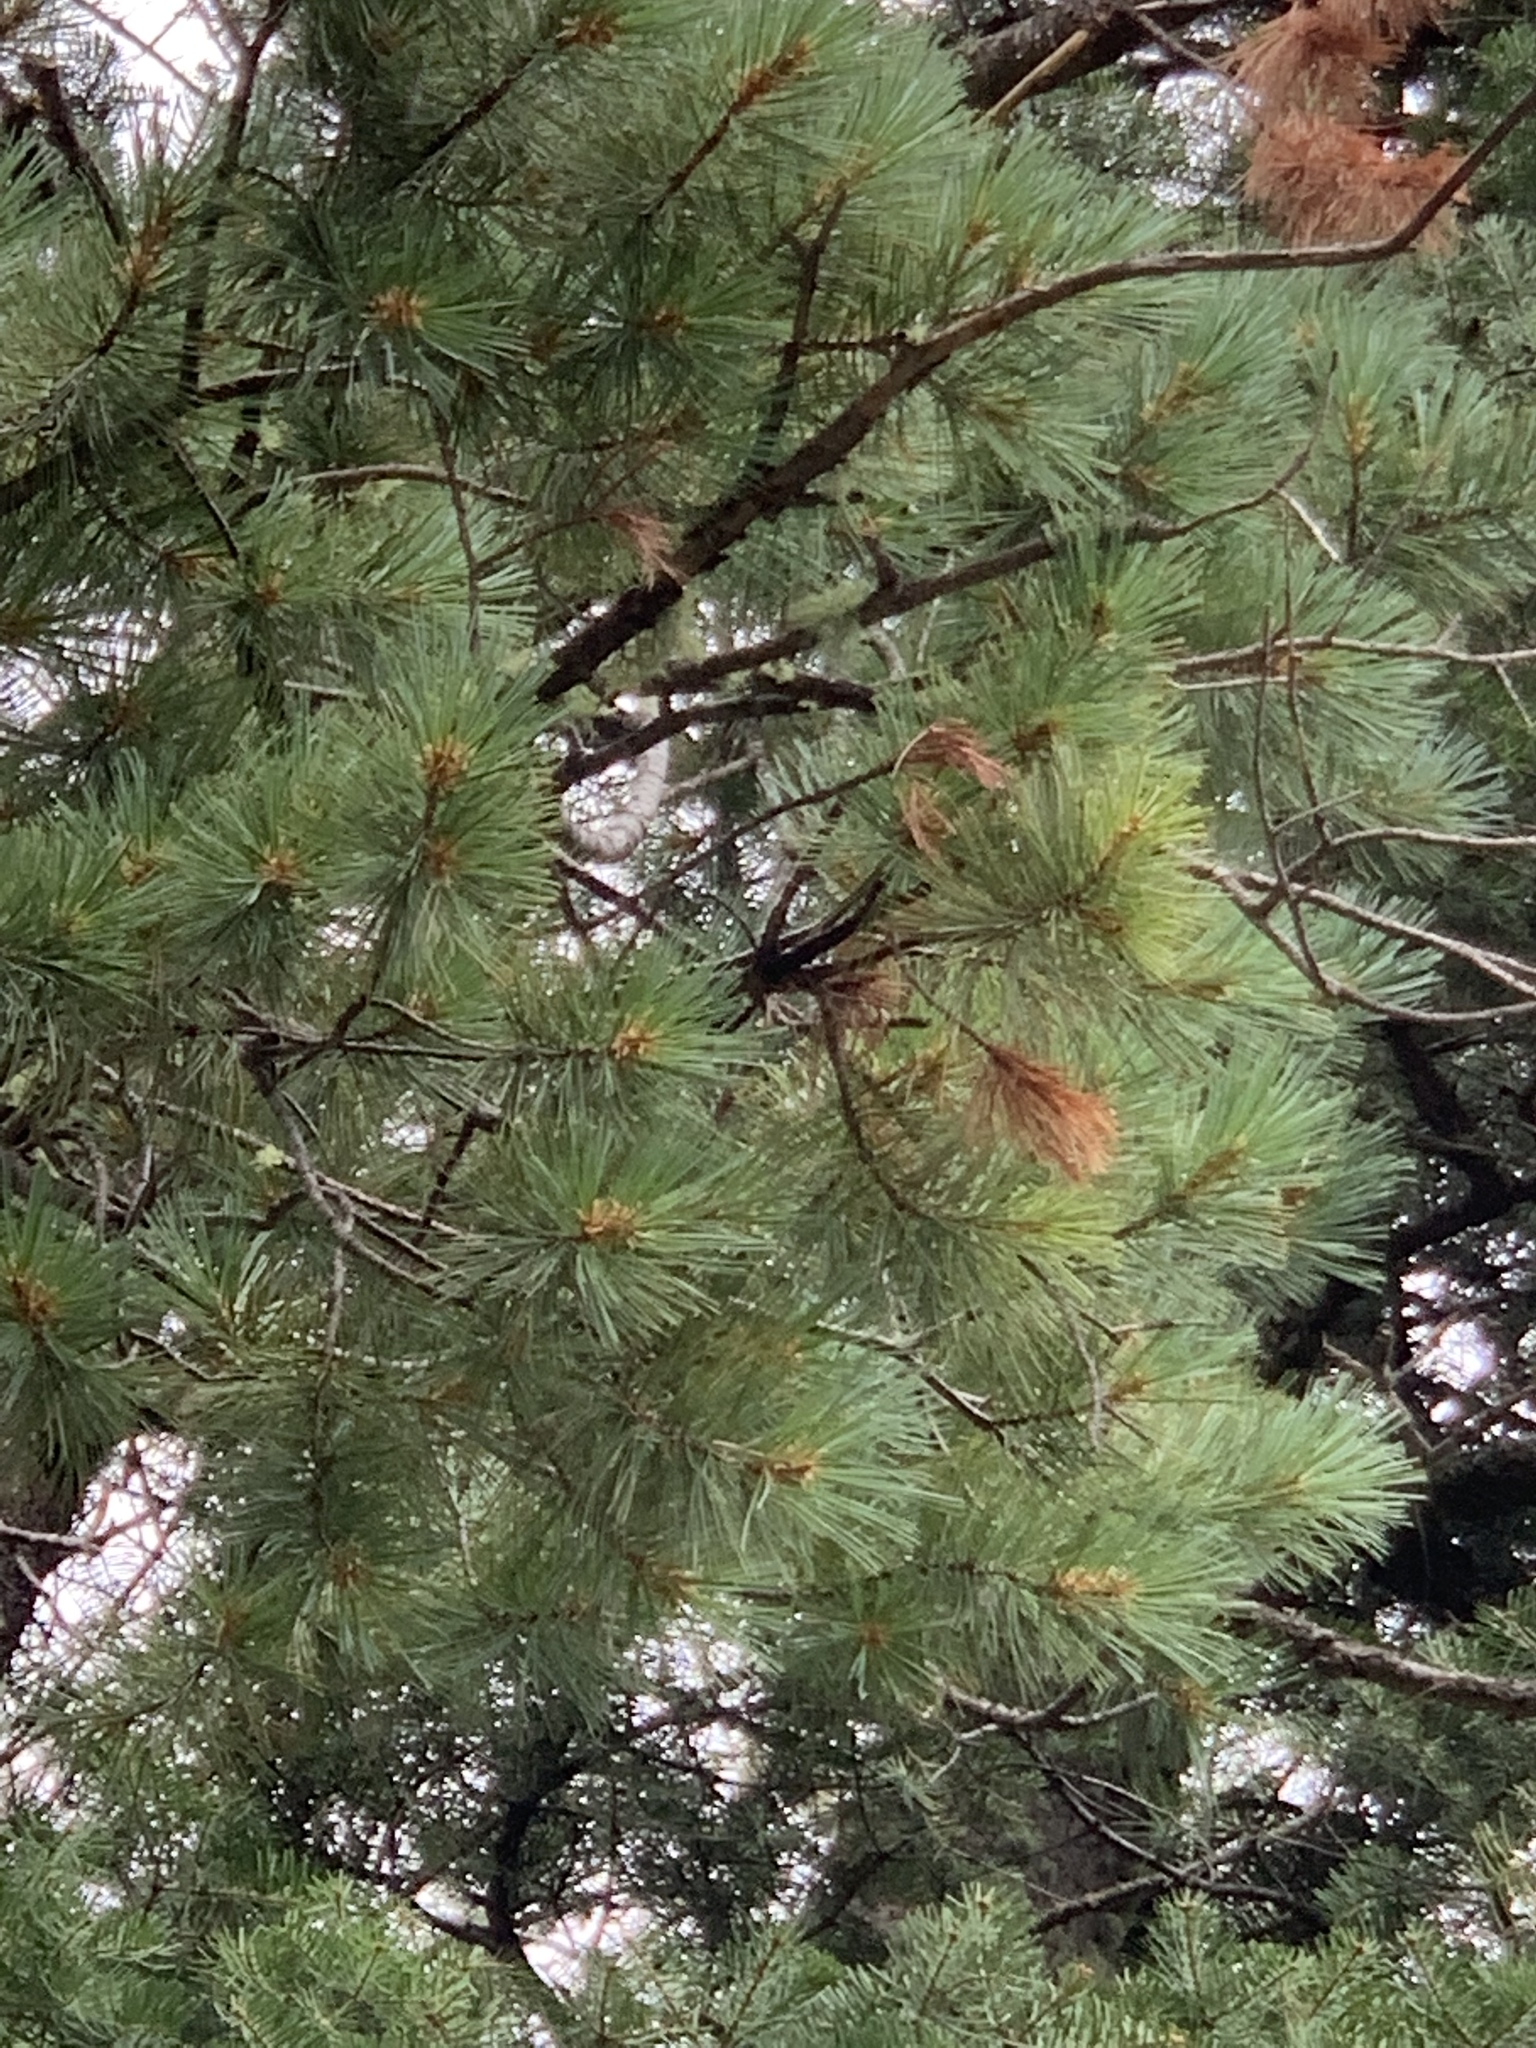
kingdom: Plantae
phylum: Tracheophyta
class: Pinopsida
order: Pinales
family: Pinaceae
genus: Pinus
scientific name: Pinus strobiformis
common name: Southwestern white pine
